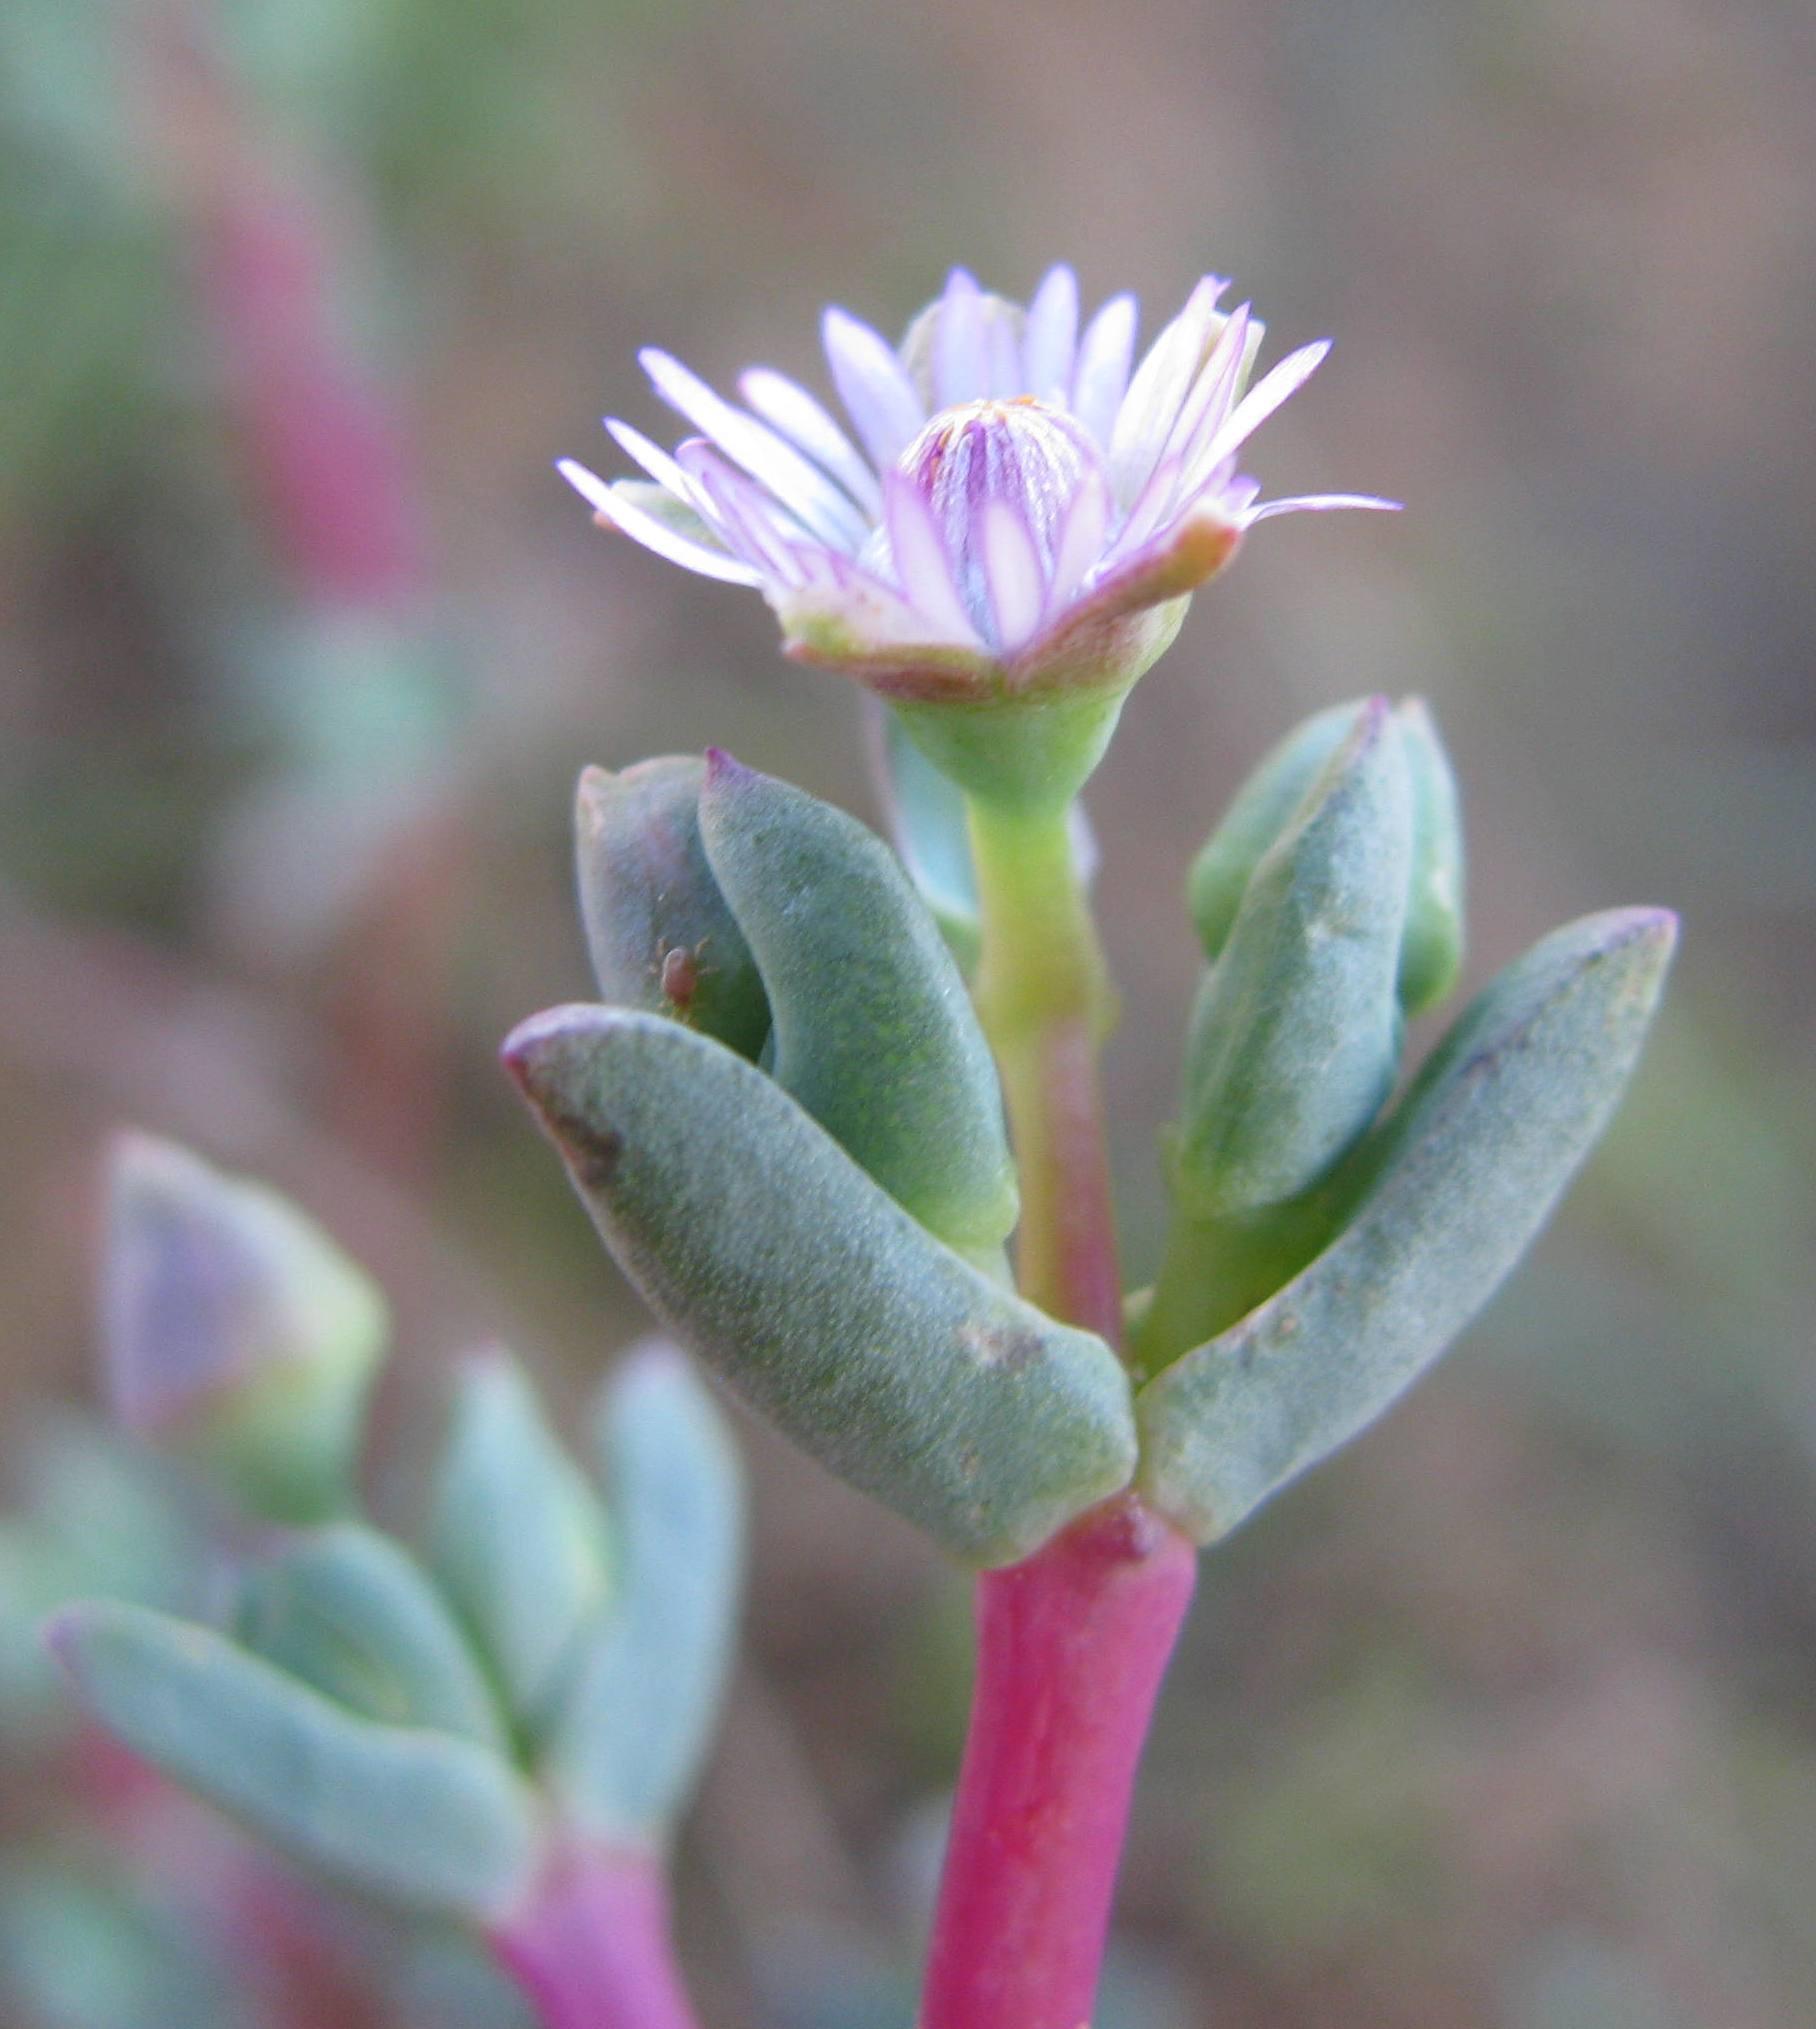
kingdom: Plantae
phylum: Tracheophyta
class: Magnoliopsida
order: Caryophyllales
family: Aizoaceae
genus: Ruschiella
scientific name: Ruschiella argentea
